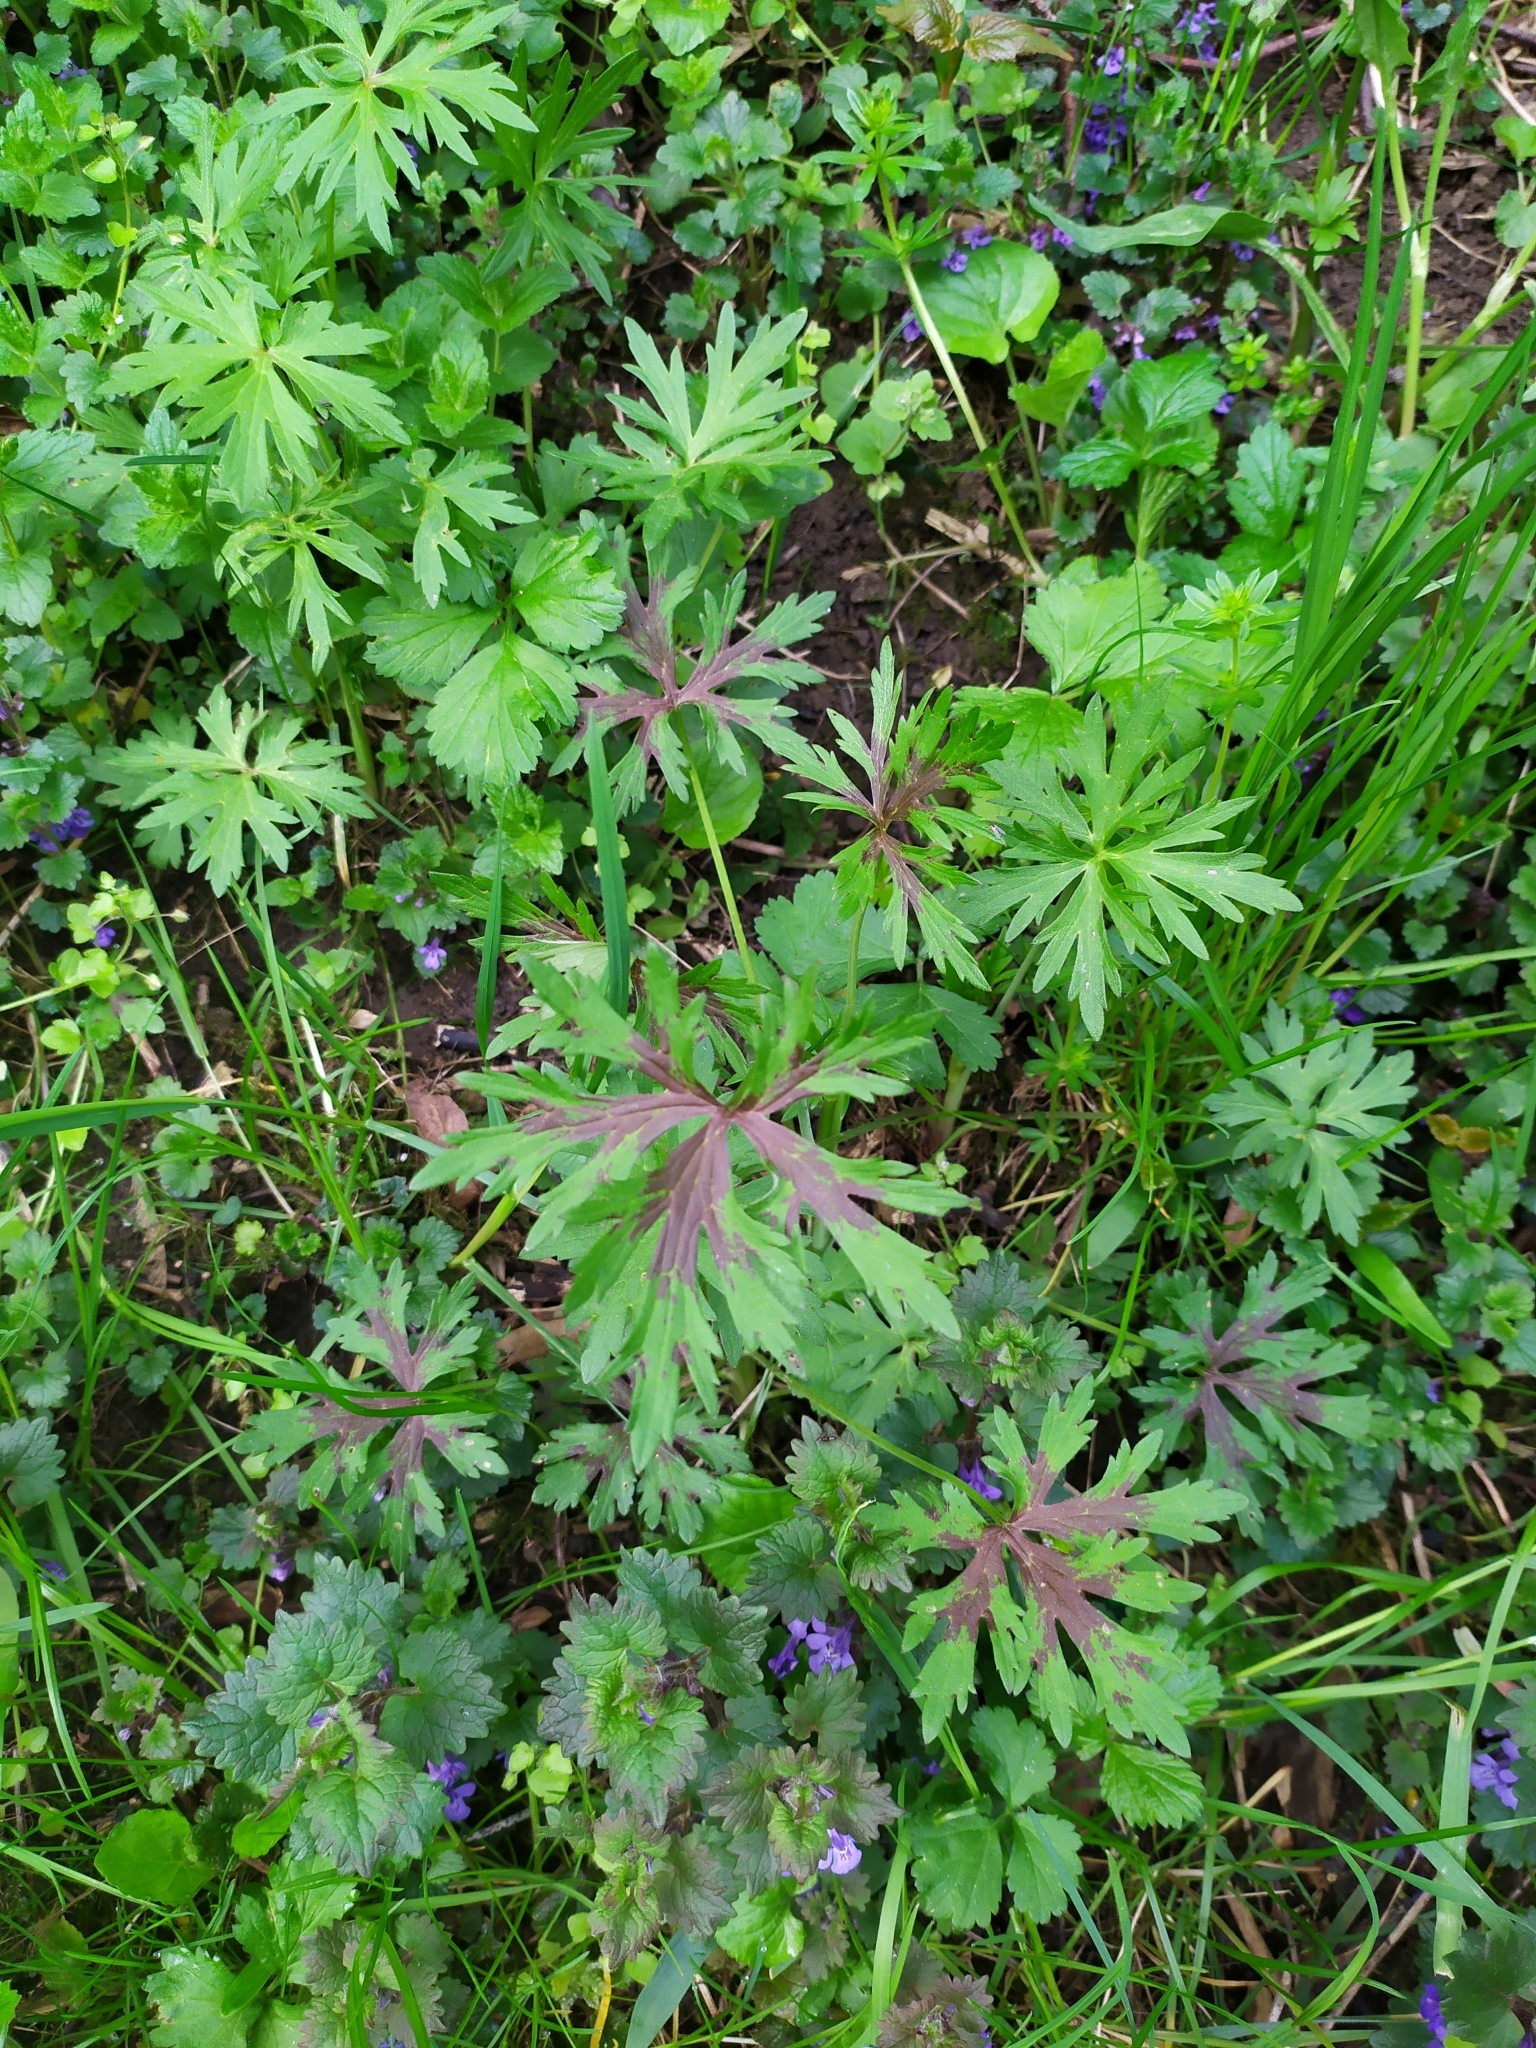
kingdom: Plantae
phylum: Tracheophyta
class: Magnoliopsida
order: Ranunculales
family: Ranunculaceae
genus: Ranunculus
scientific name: Ranunculus acris
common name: Meadow buttercup
